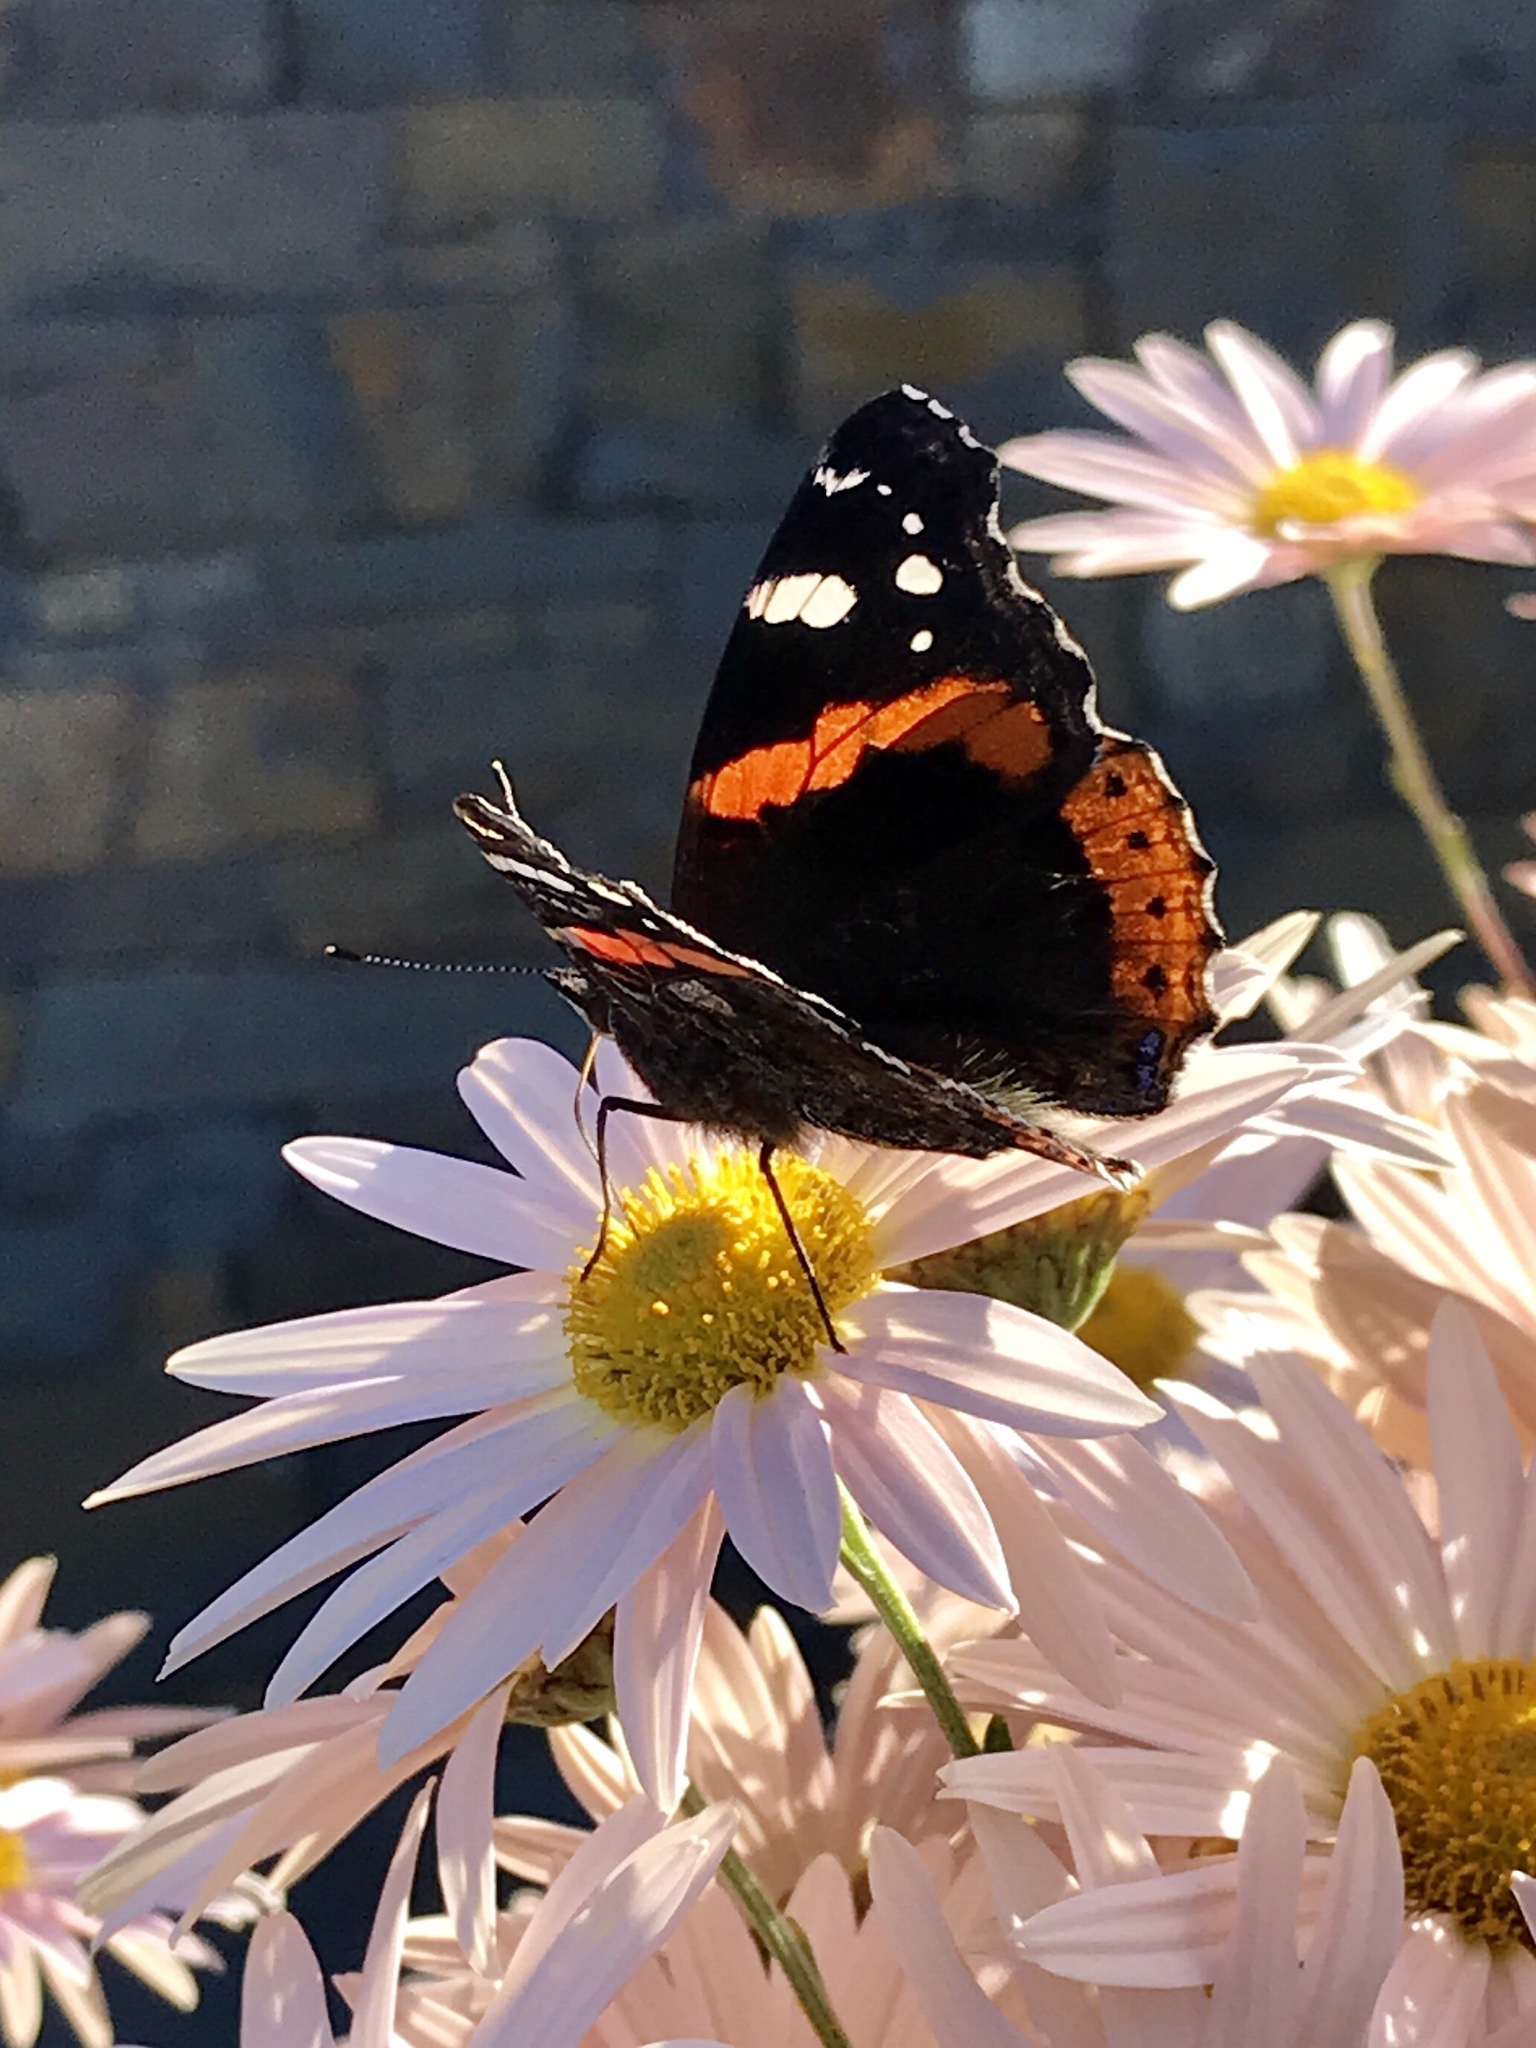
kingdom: Animalia
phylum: Arthropoda
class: Insecta
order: Lepidoptera
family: Nymphalidae
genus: Vanessa
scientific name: Vanessa atalanta
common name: Red admiral
